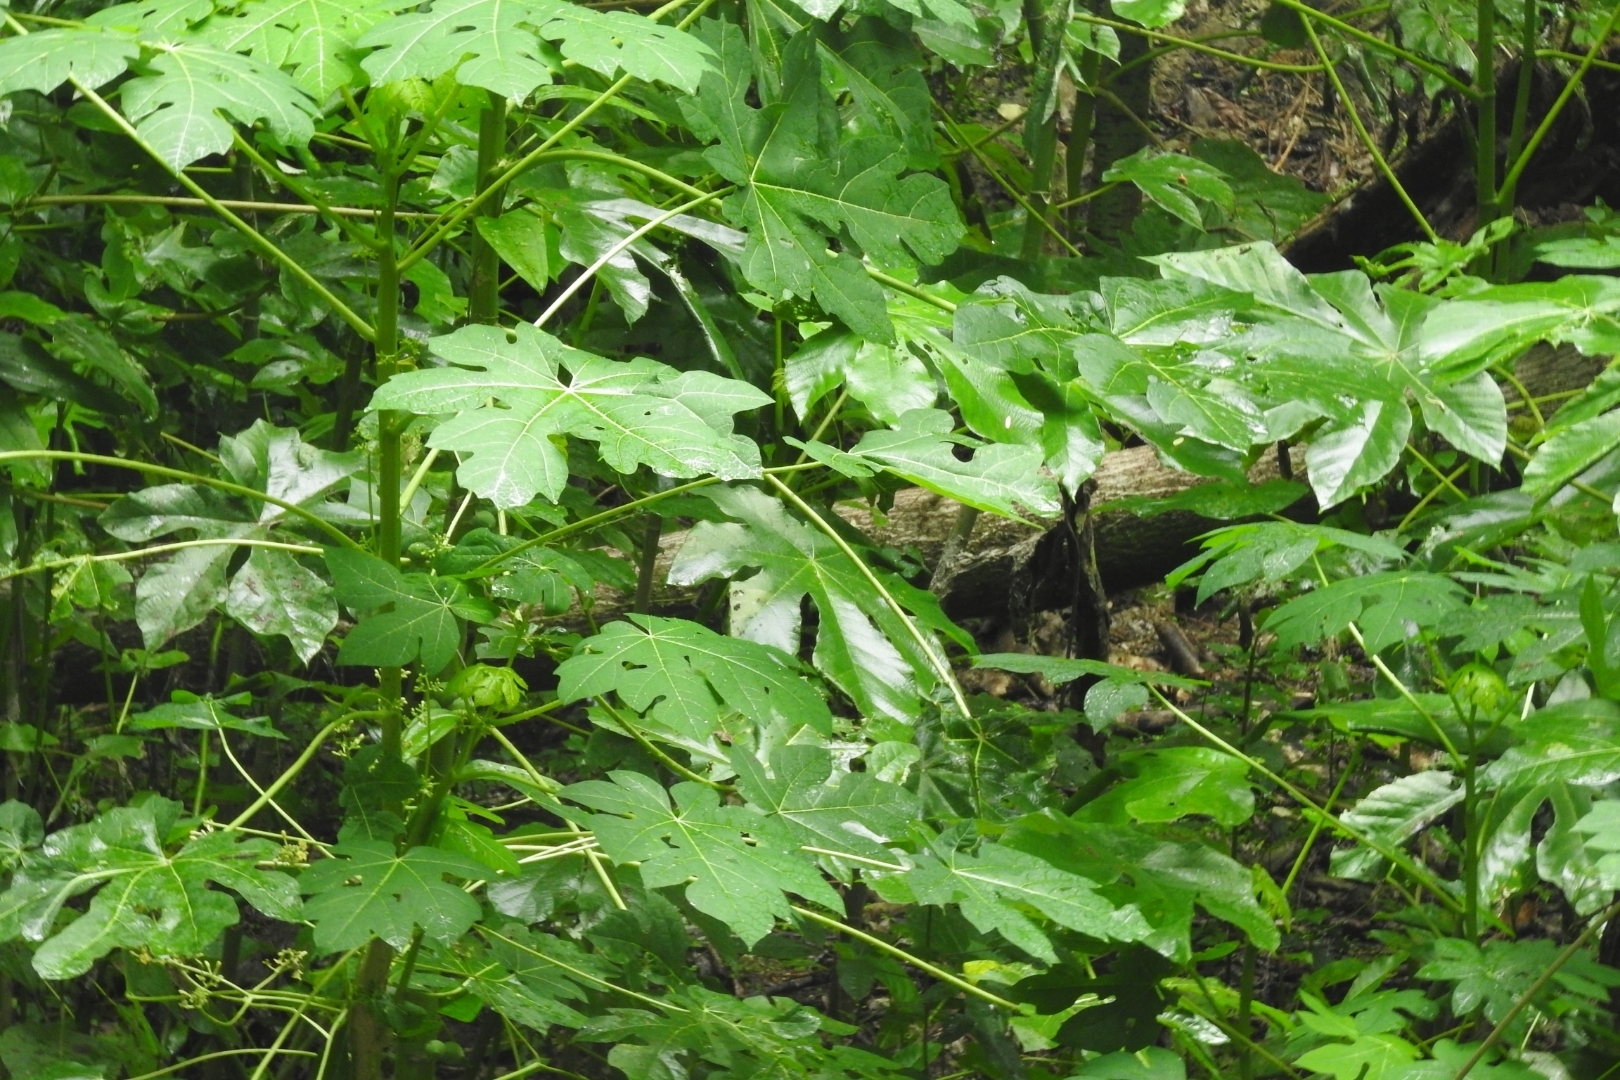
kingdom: Plantae
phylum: Tracheophyta
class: Magnoliopsida
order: Brassicales
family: Caricaceae
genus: Carica
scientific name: Carica papaya
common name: Papaya
